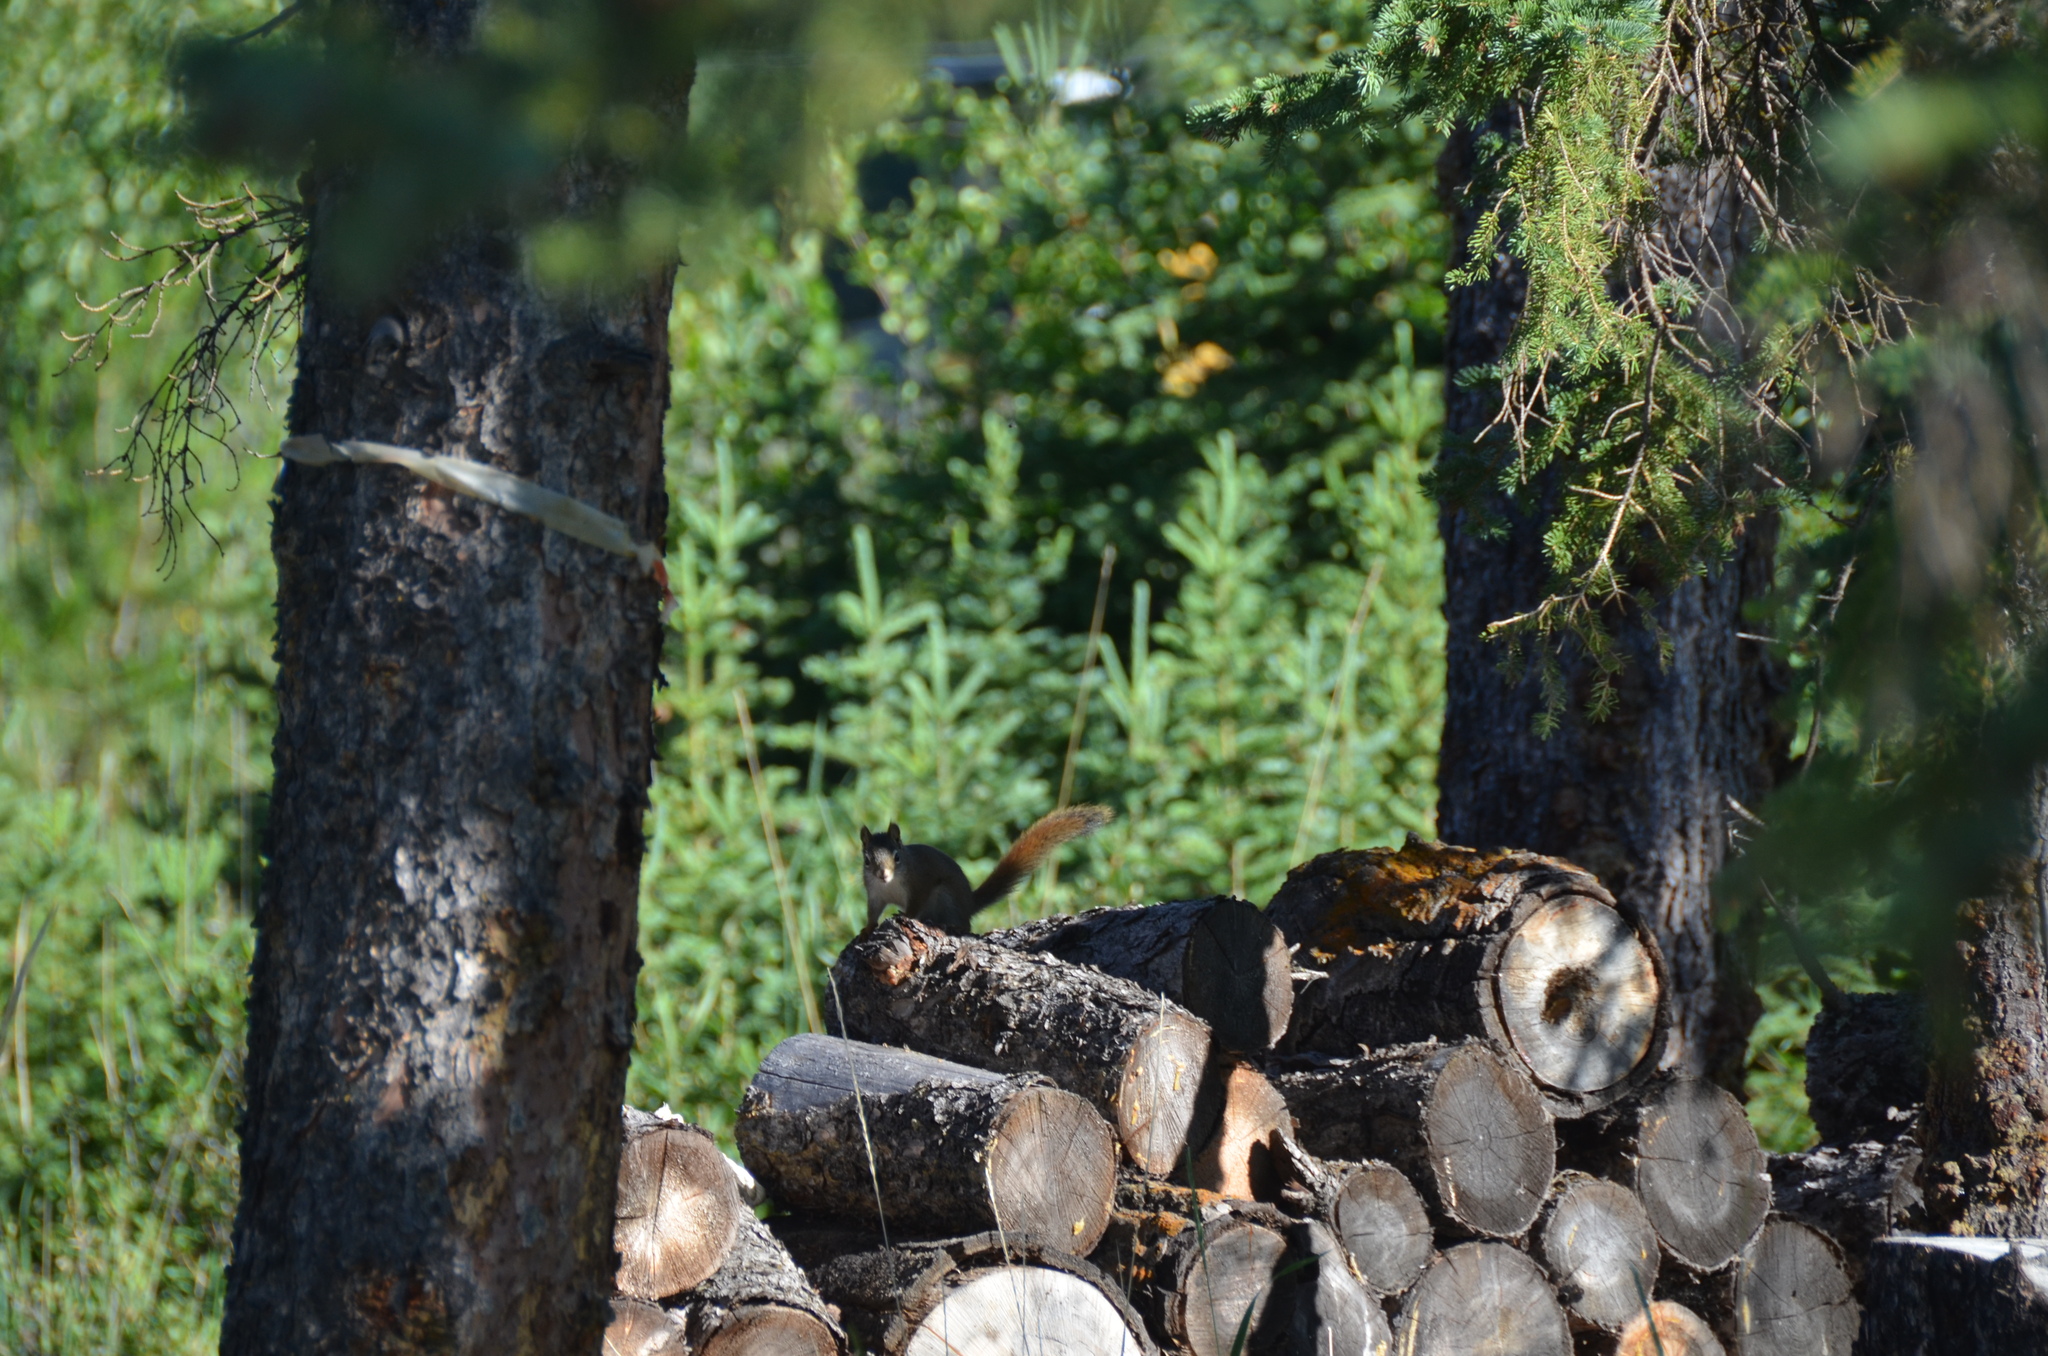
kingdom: Animalia
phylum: Chordata
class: Mammalia
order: Rodentia
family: Sciuridae
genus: Tamiasciurus
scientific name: Tamiasciurus hudsonicus
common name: Red squirrel
